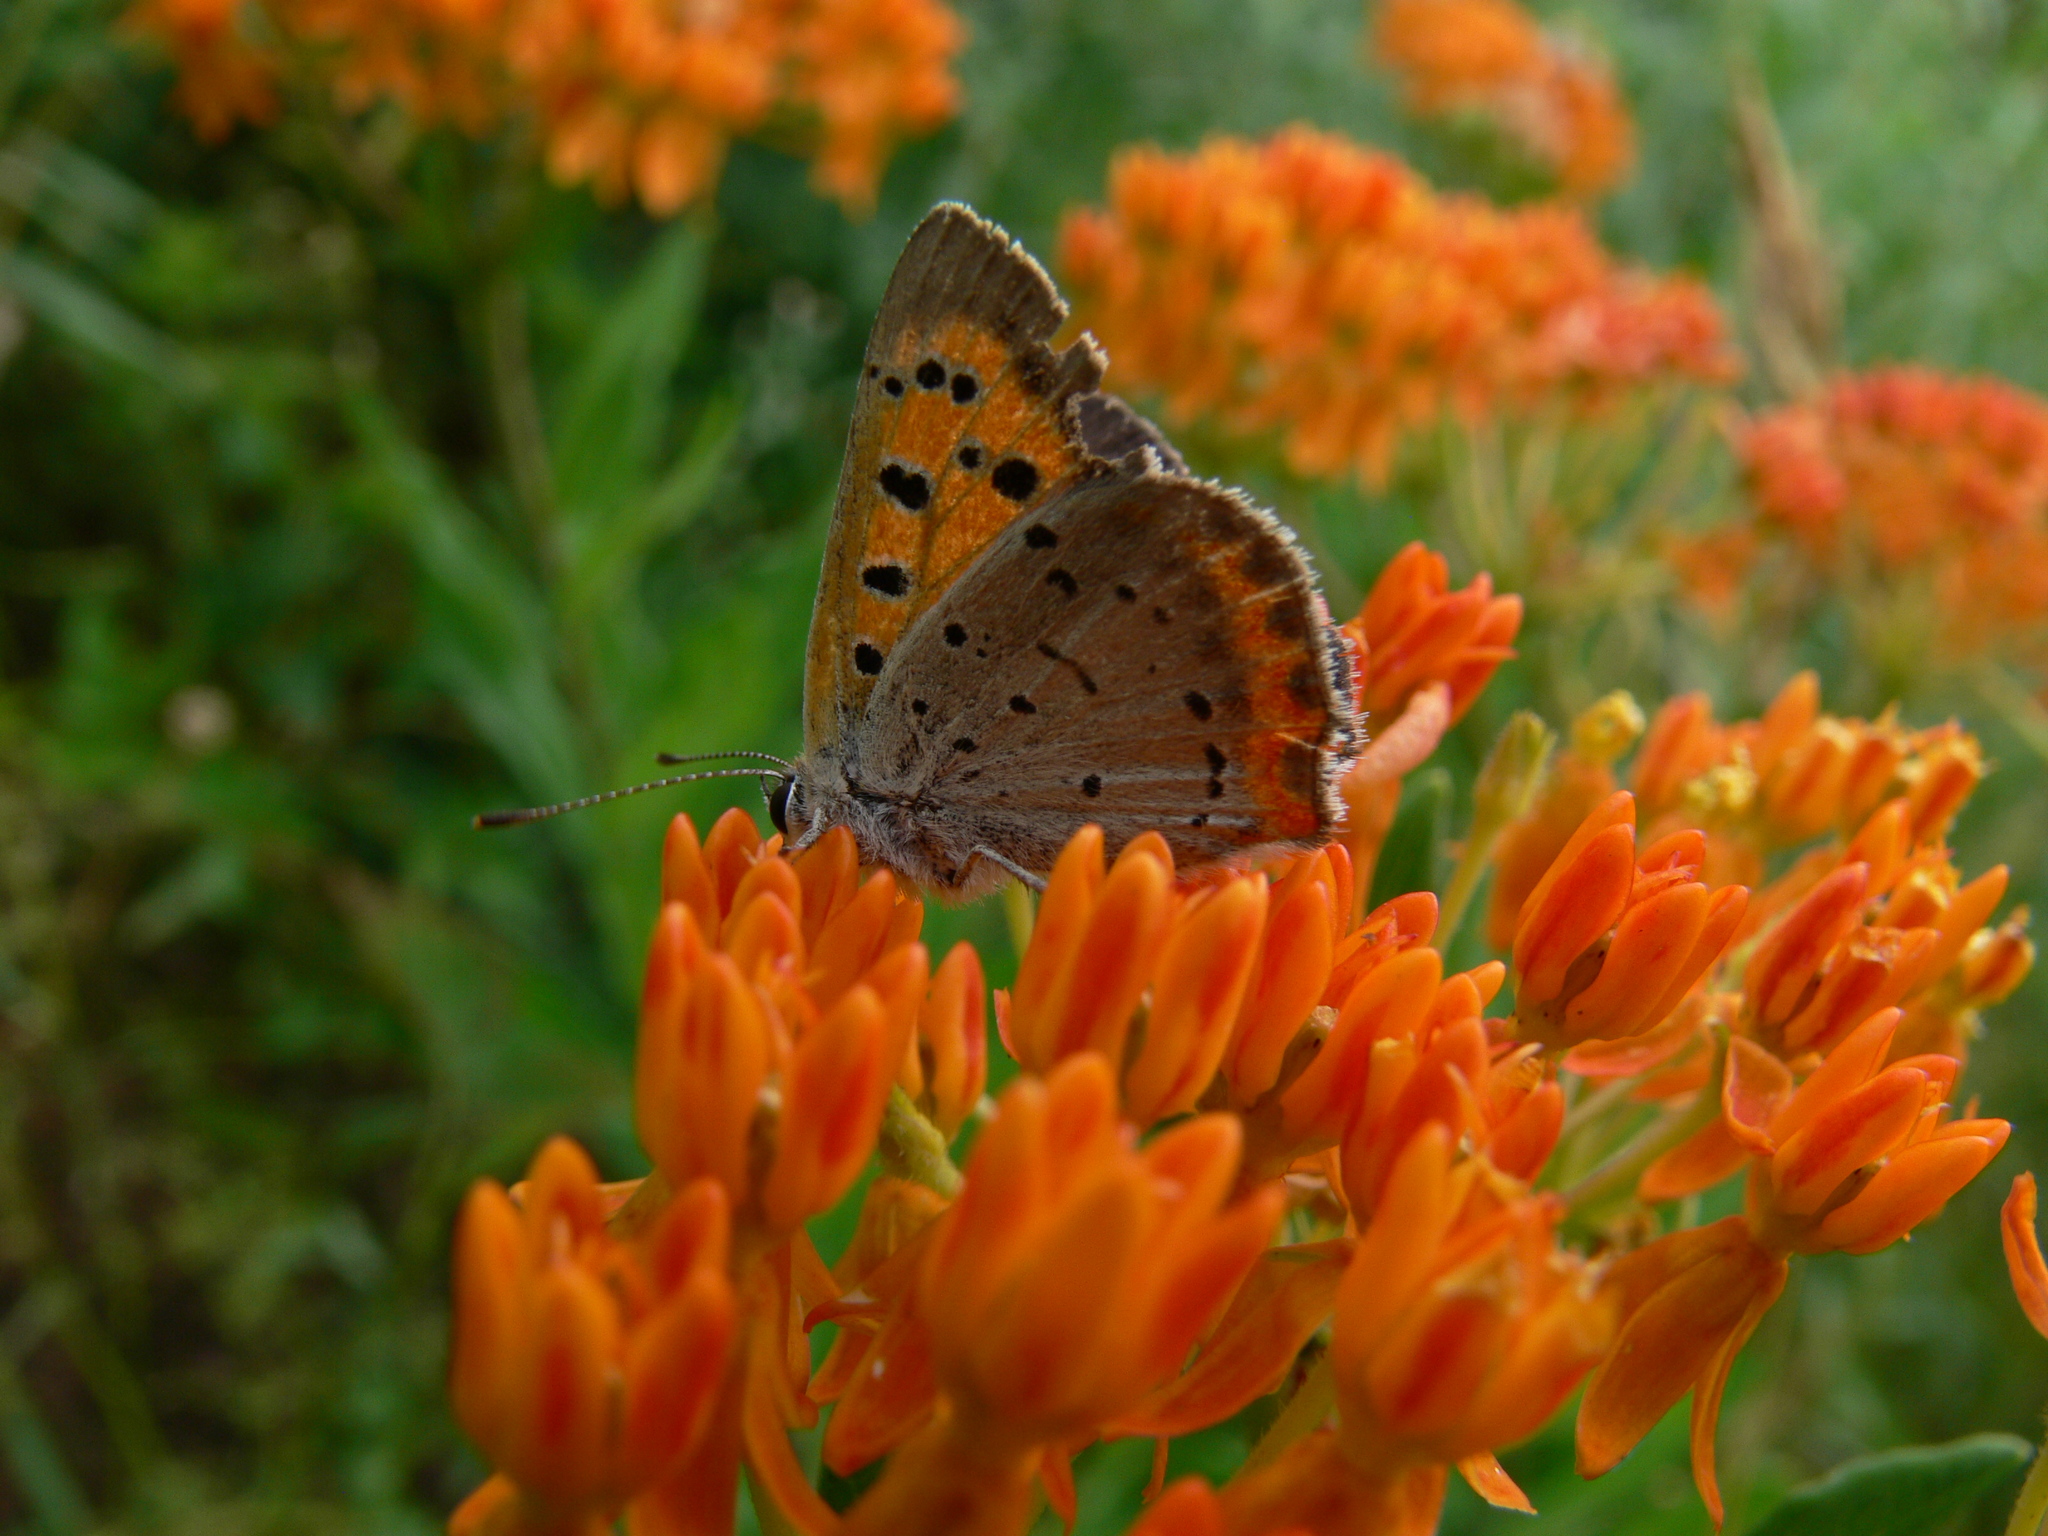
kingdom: Animalia
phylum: Arthropoda
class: Insecta
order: Lepidoptera
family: Lycaenidae
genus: Lycaena
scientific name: Lycaena hypophlaeas
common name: American copper
